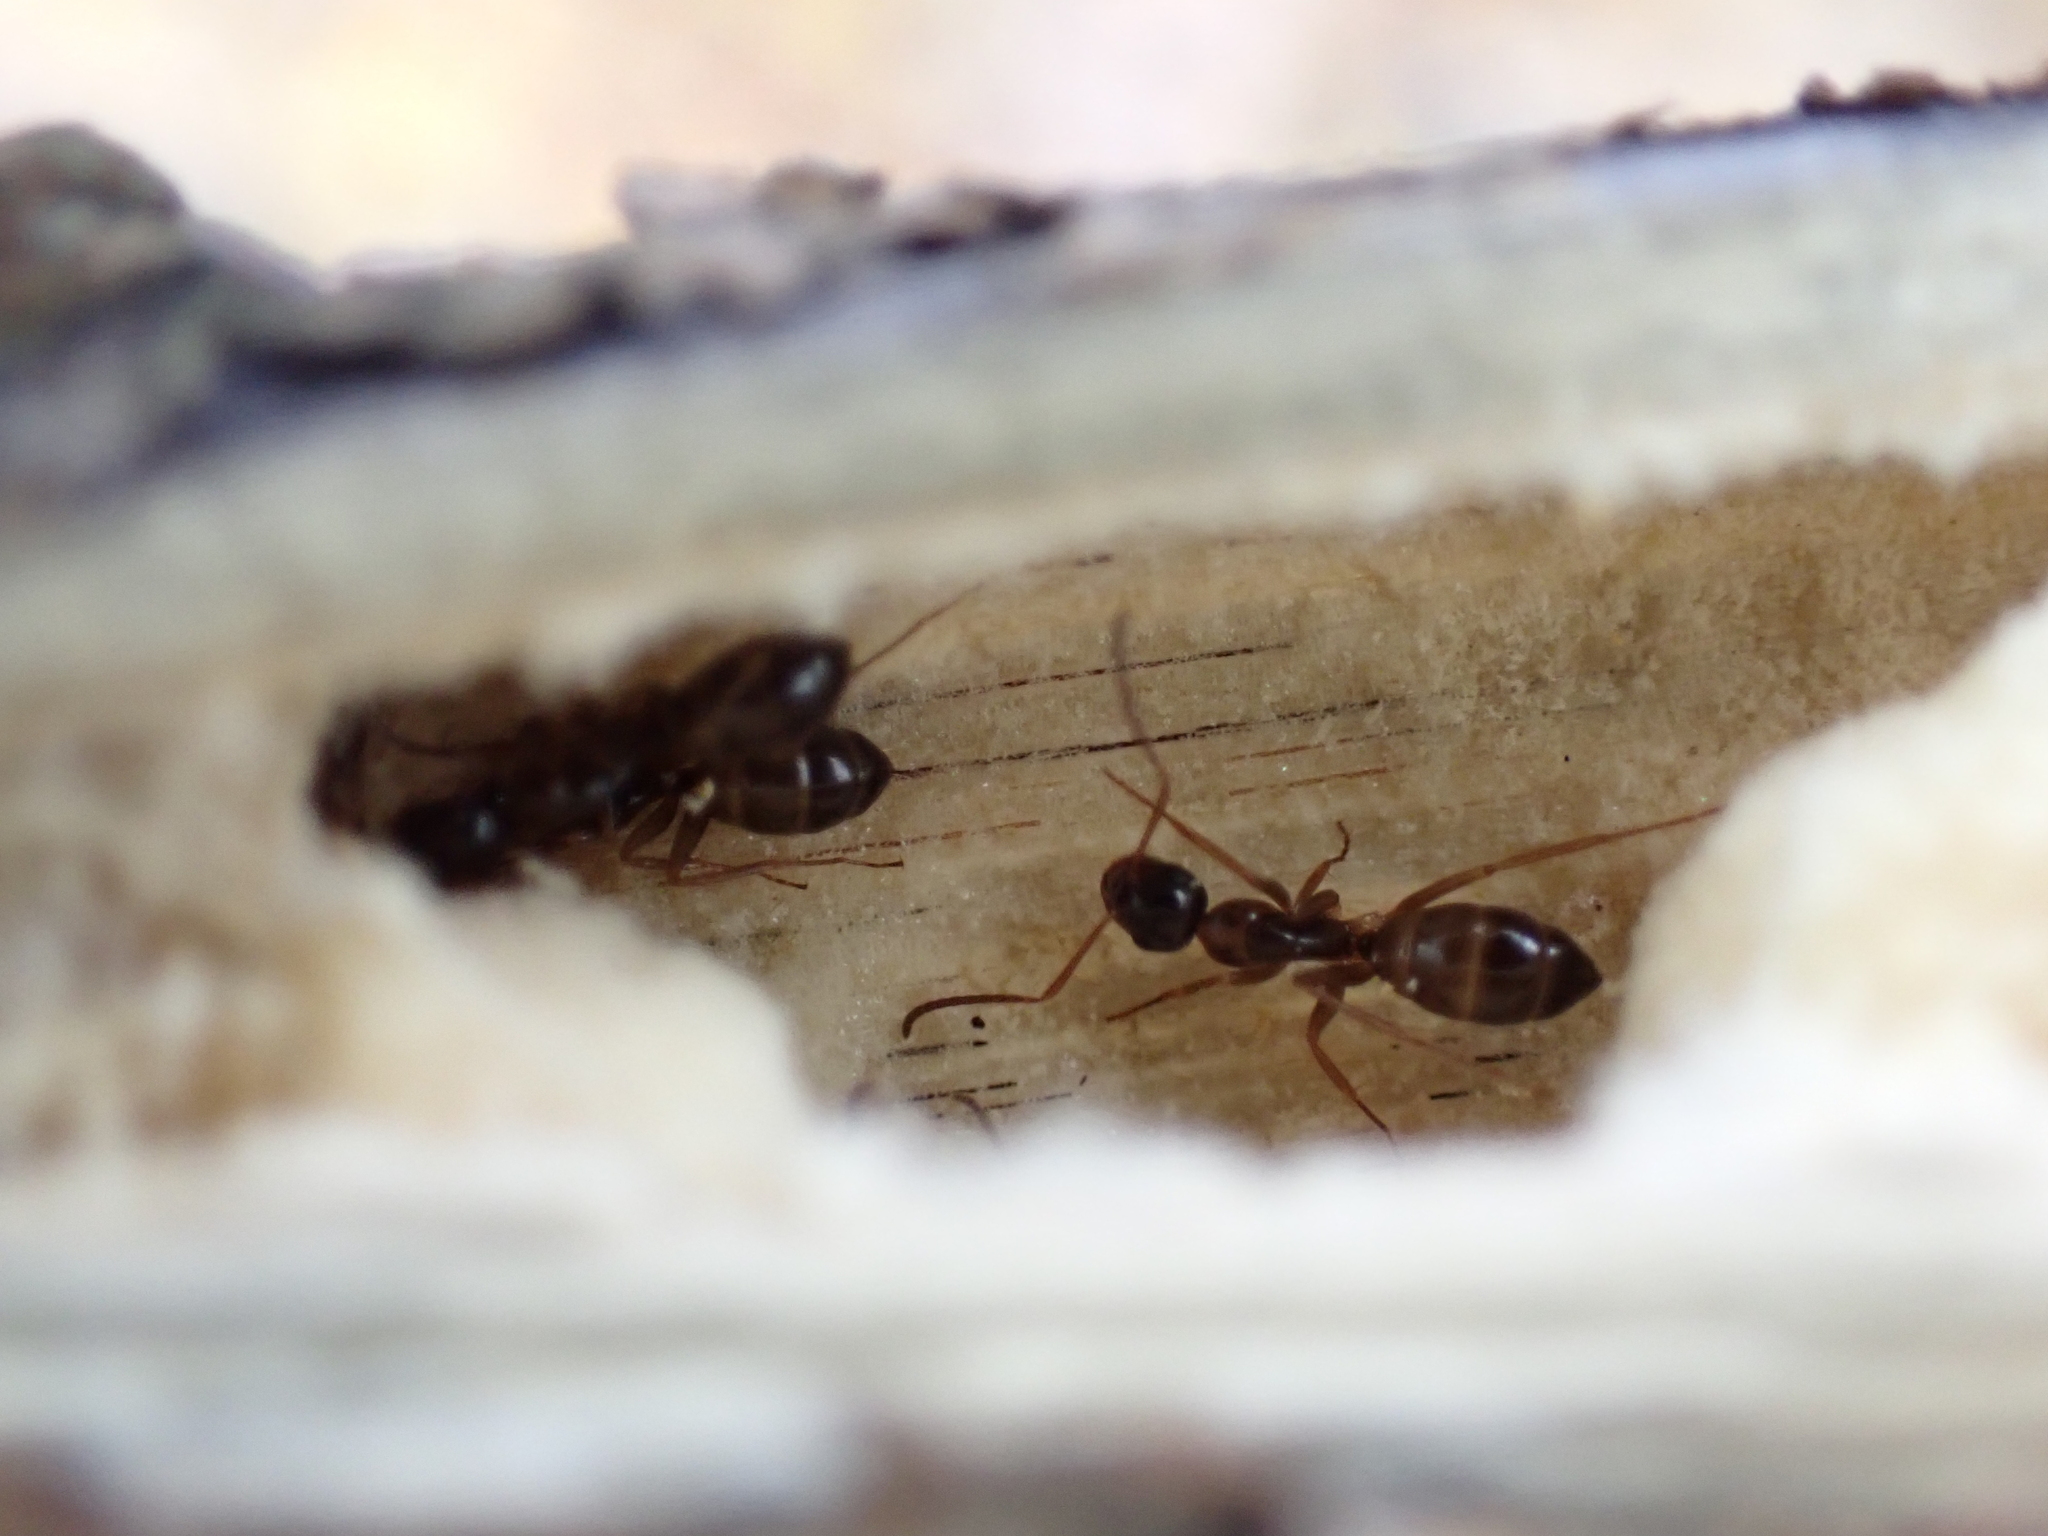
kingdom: Animalia
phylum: Arthropoda
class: Insecta
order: Hymenoptera
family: Formicidae
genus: Camponotus
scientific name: Camponotus fallax
